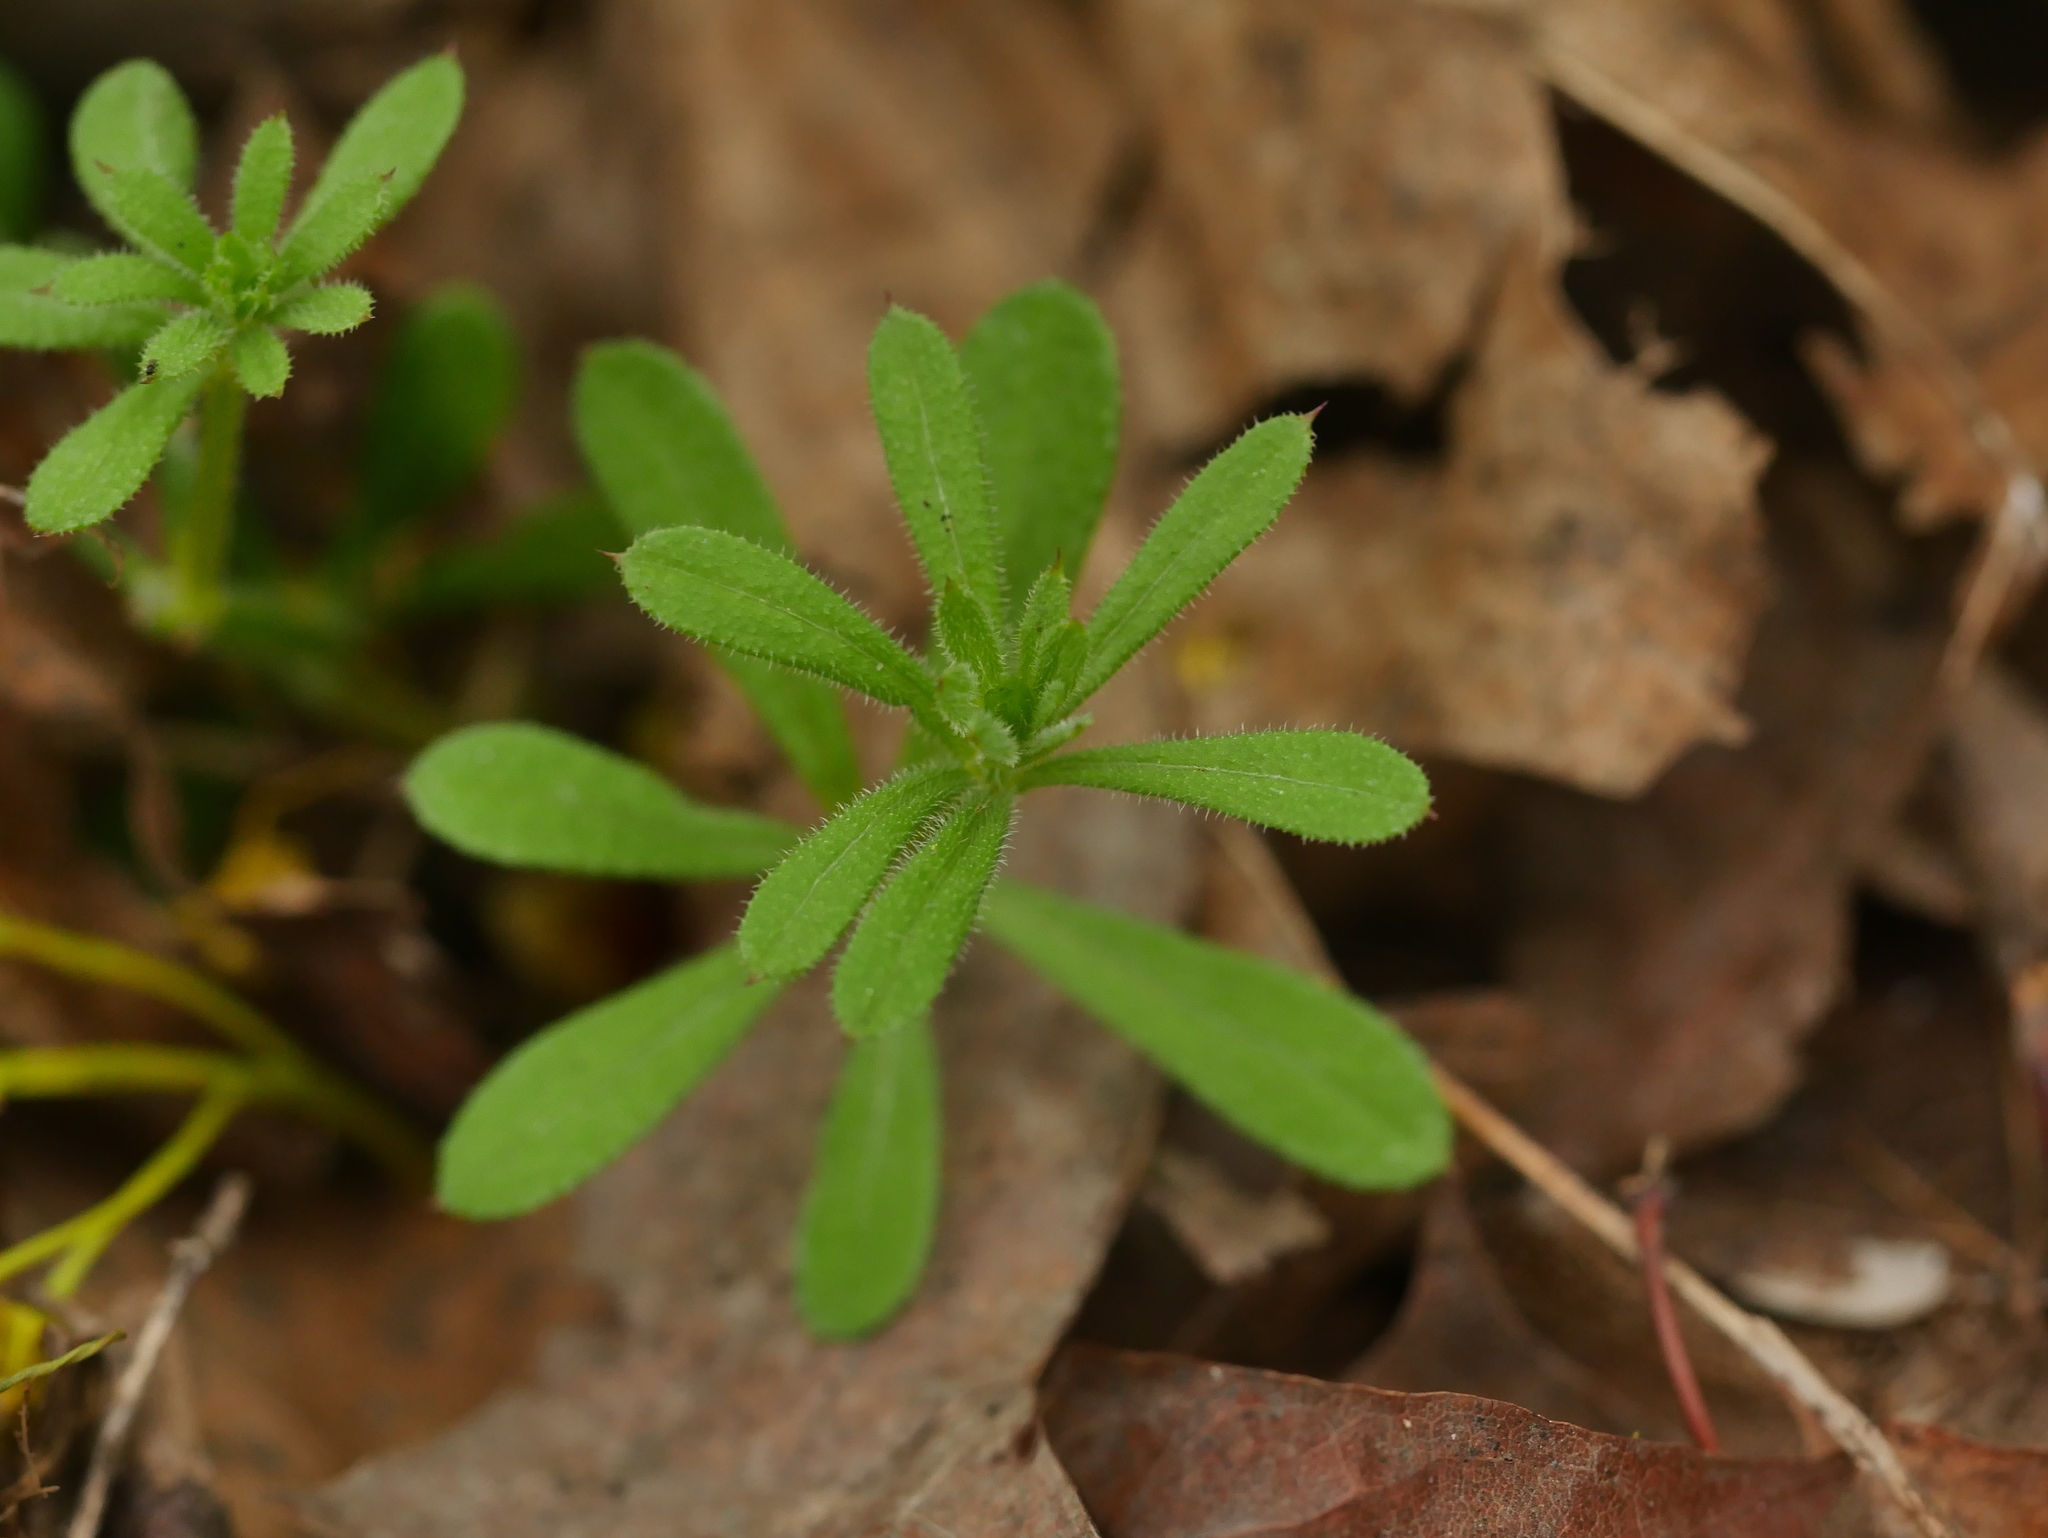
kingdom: Plantae
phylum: Tracheophyta
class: Magnoliopsida
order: Gentianales
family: Rubiaceae
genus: Galium
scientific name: Galium aparine
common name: Cleavers
